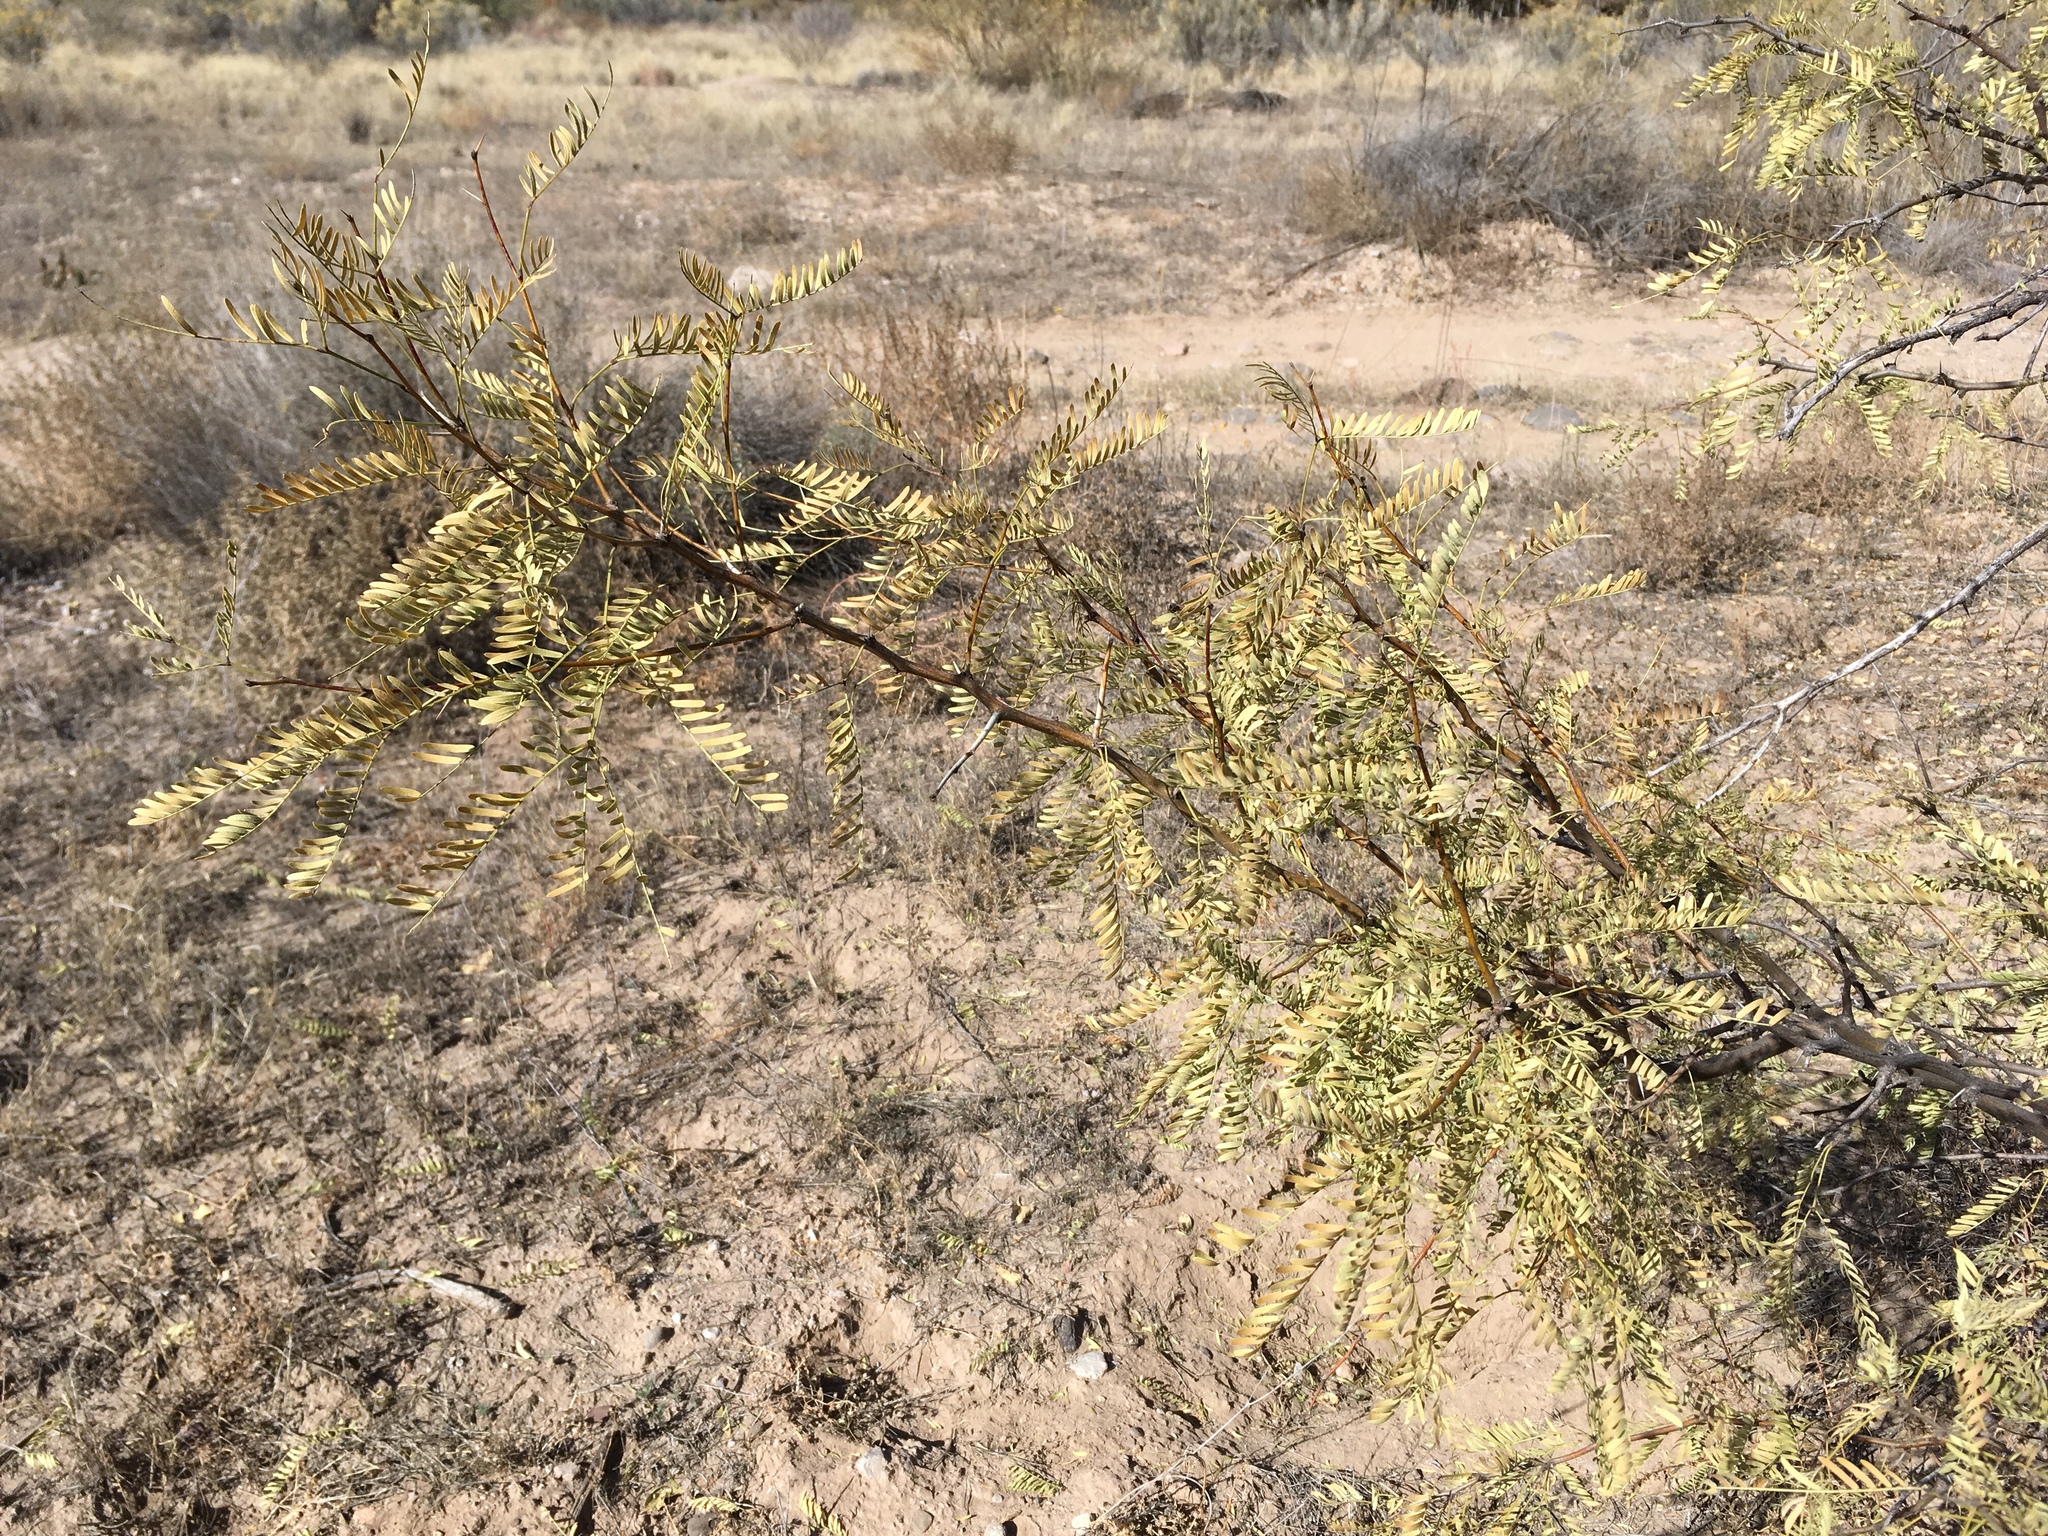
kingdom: Plantae
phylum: Tracheophyta
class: Magnoliopsida
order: Fabales
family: Fabaceae
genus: Prosopis
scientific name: Prosopis glandulosa
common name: Honey mesquite
